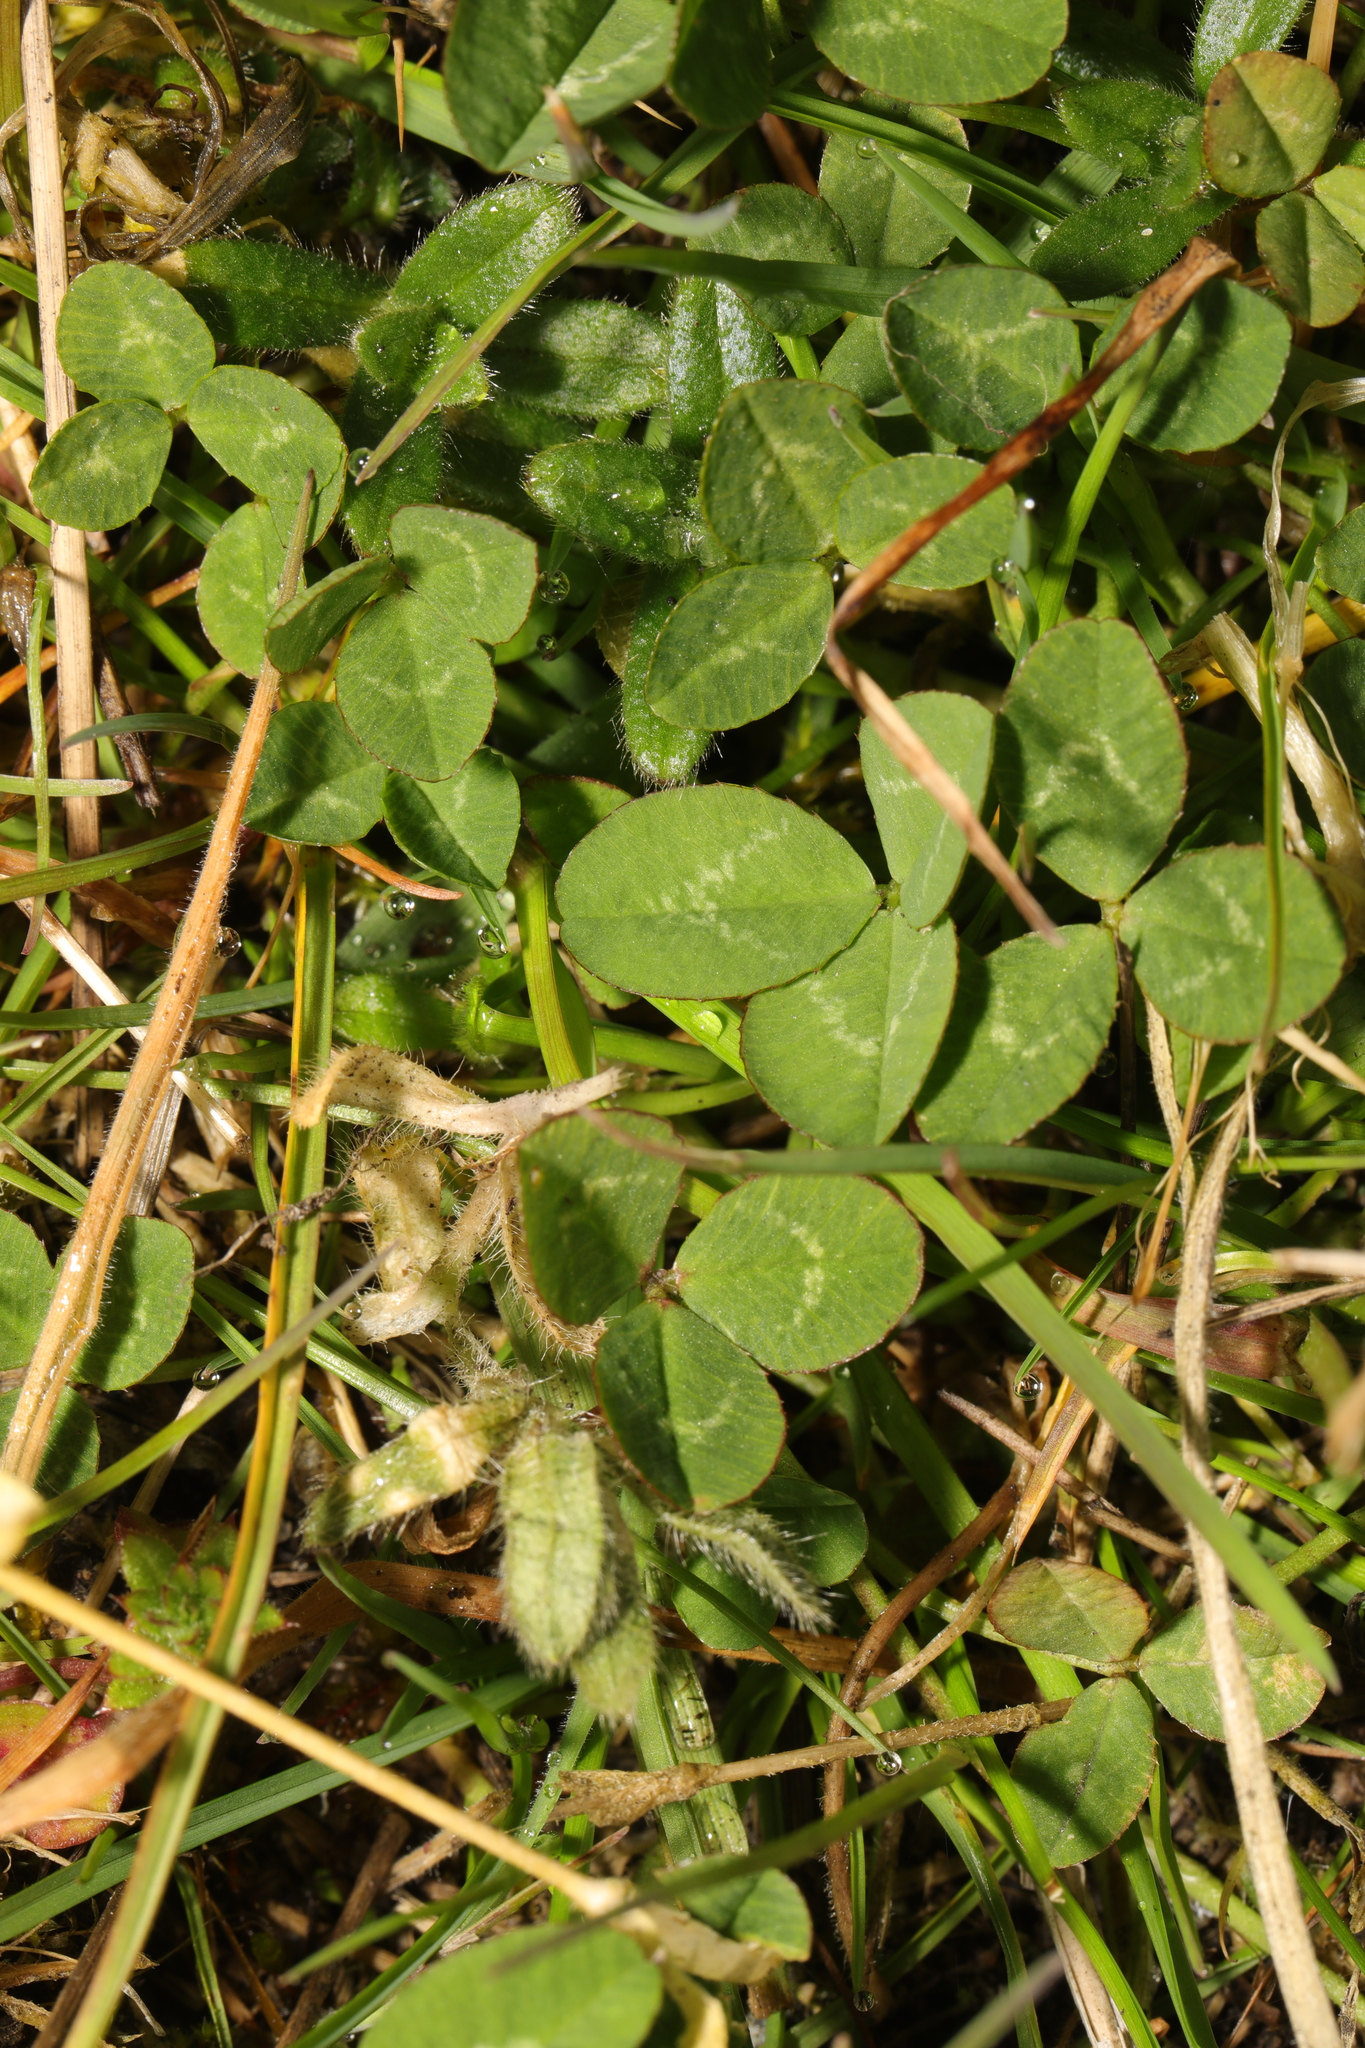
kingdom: Plantae
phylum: Tracheophyta
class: Magnoliopsida
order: Fabales
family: Fabaceae
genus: Trifolium
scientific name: Trifolium repens
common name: White clover
